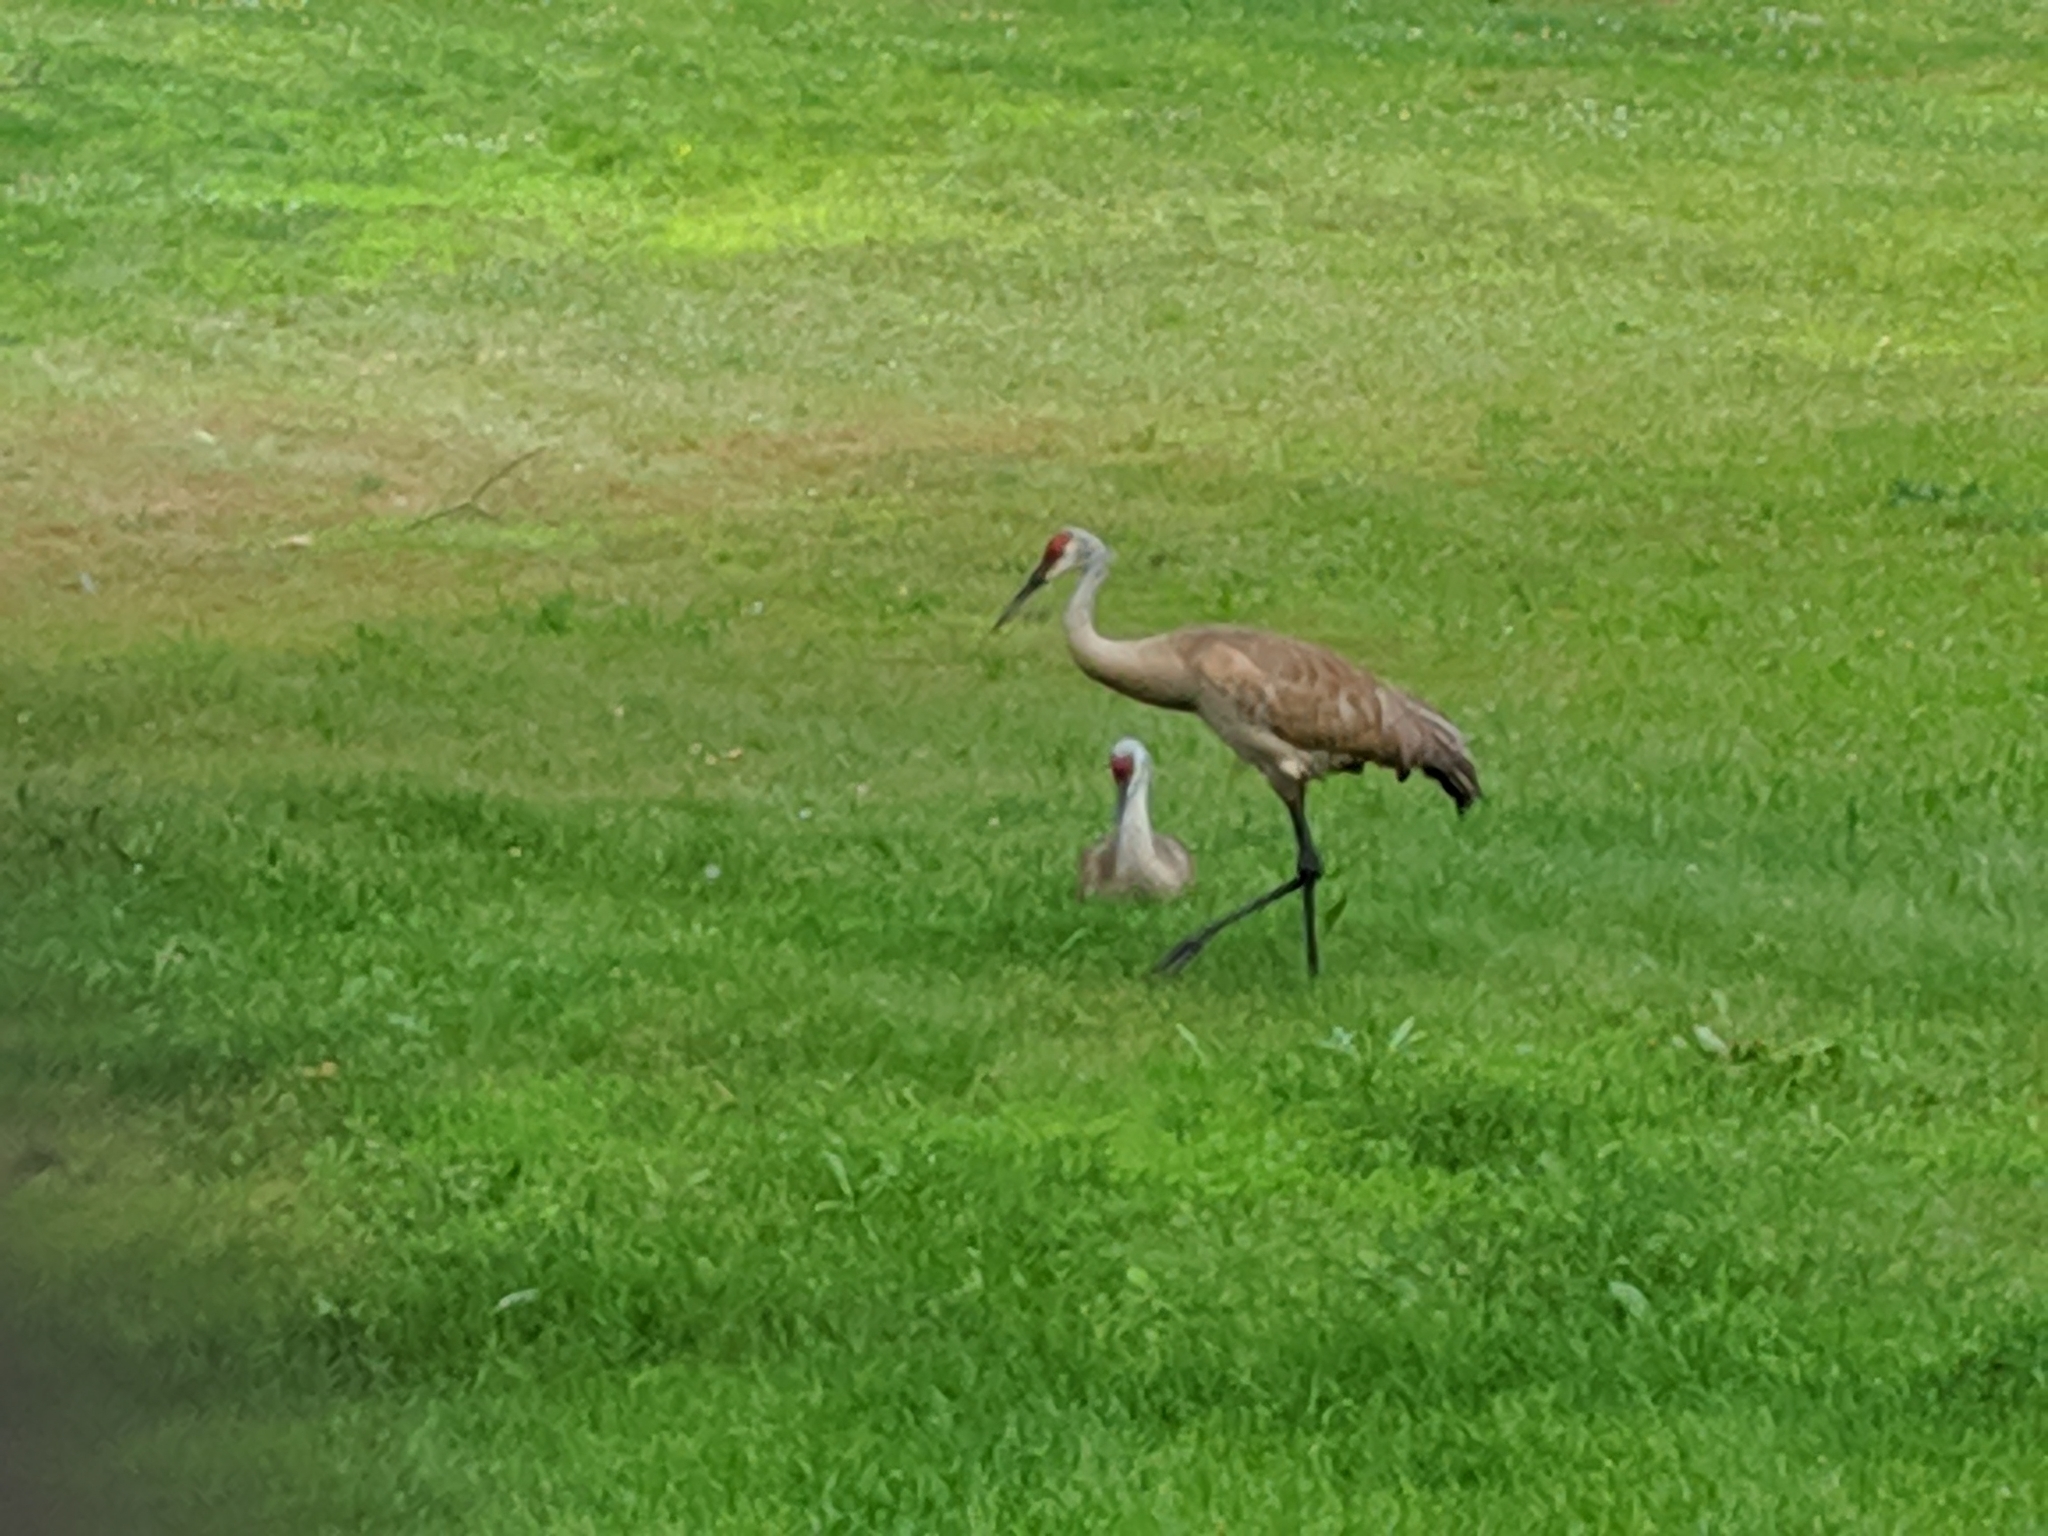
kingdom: Animalia
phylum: Chordata
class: Aves
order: Gruiformes
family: Gruidae
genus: Grus
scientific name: Grus canadensis
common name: Sandhill crane
